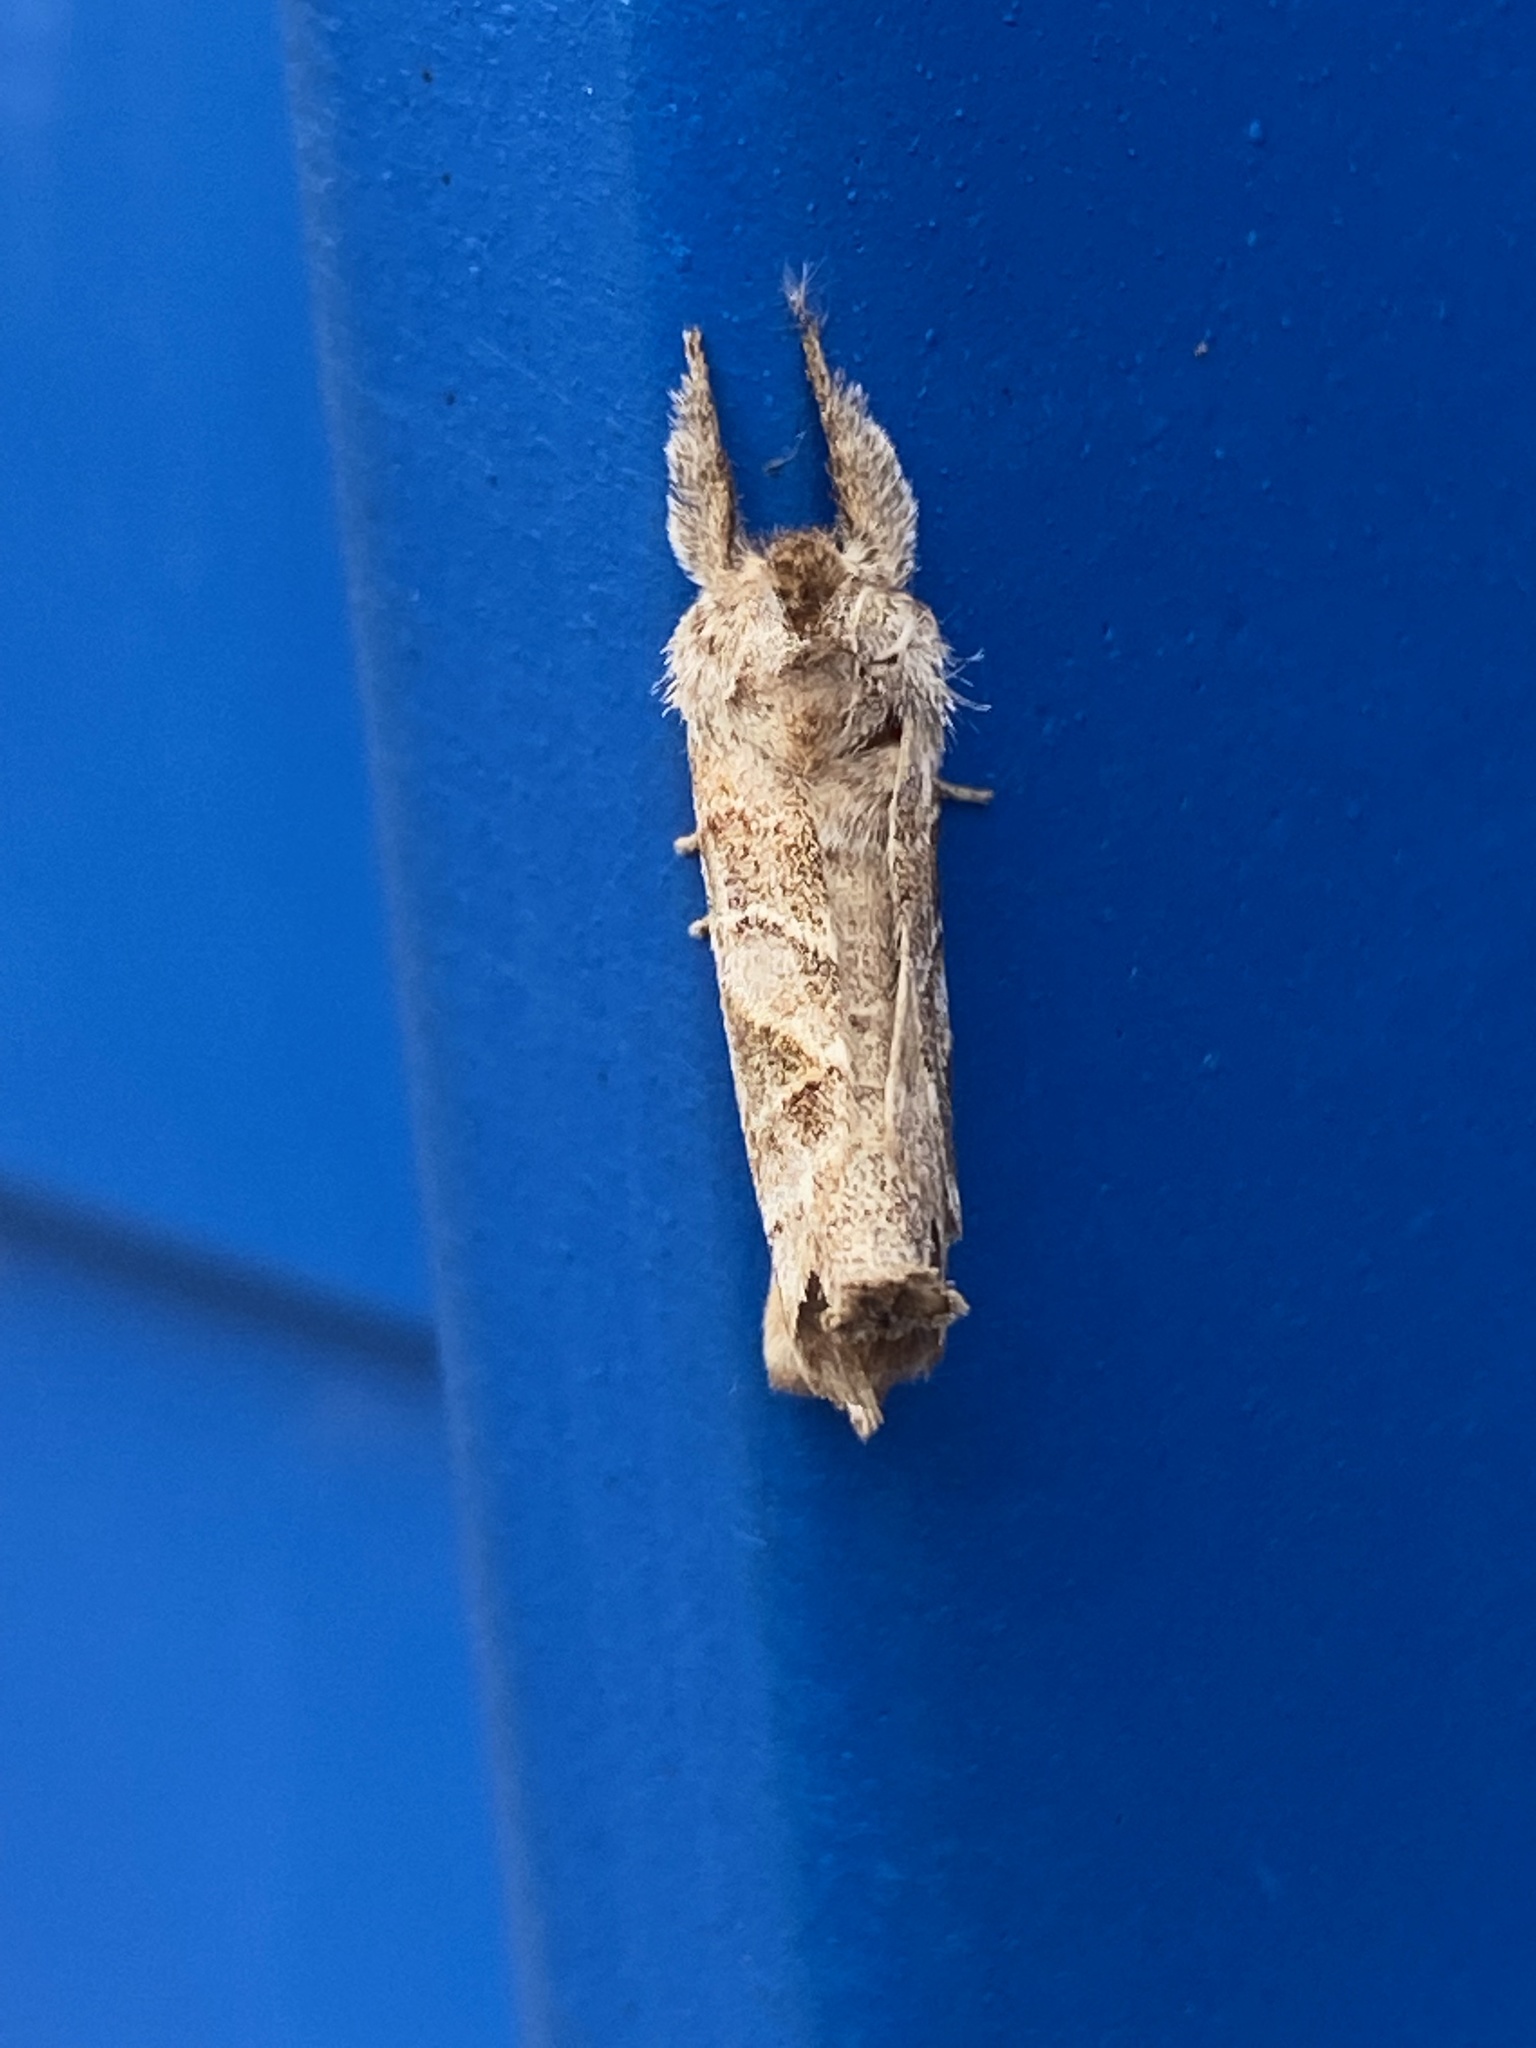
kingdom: Animalia
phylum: Arthropoda
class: Insecta
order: Lepidoptera
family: Notodontidae
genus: Clostera
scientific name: Clostera strigosa
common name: Striped chocolate-tip moth
